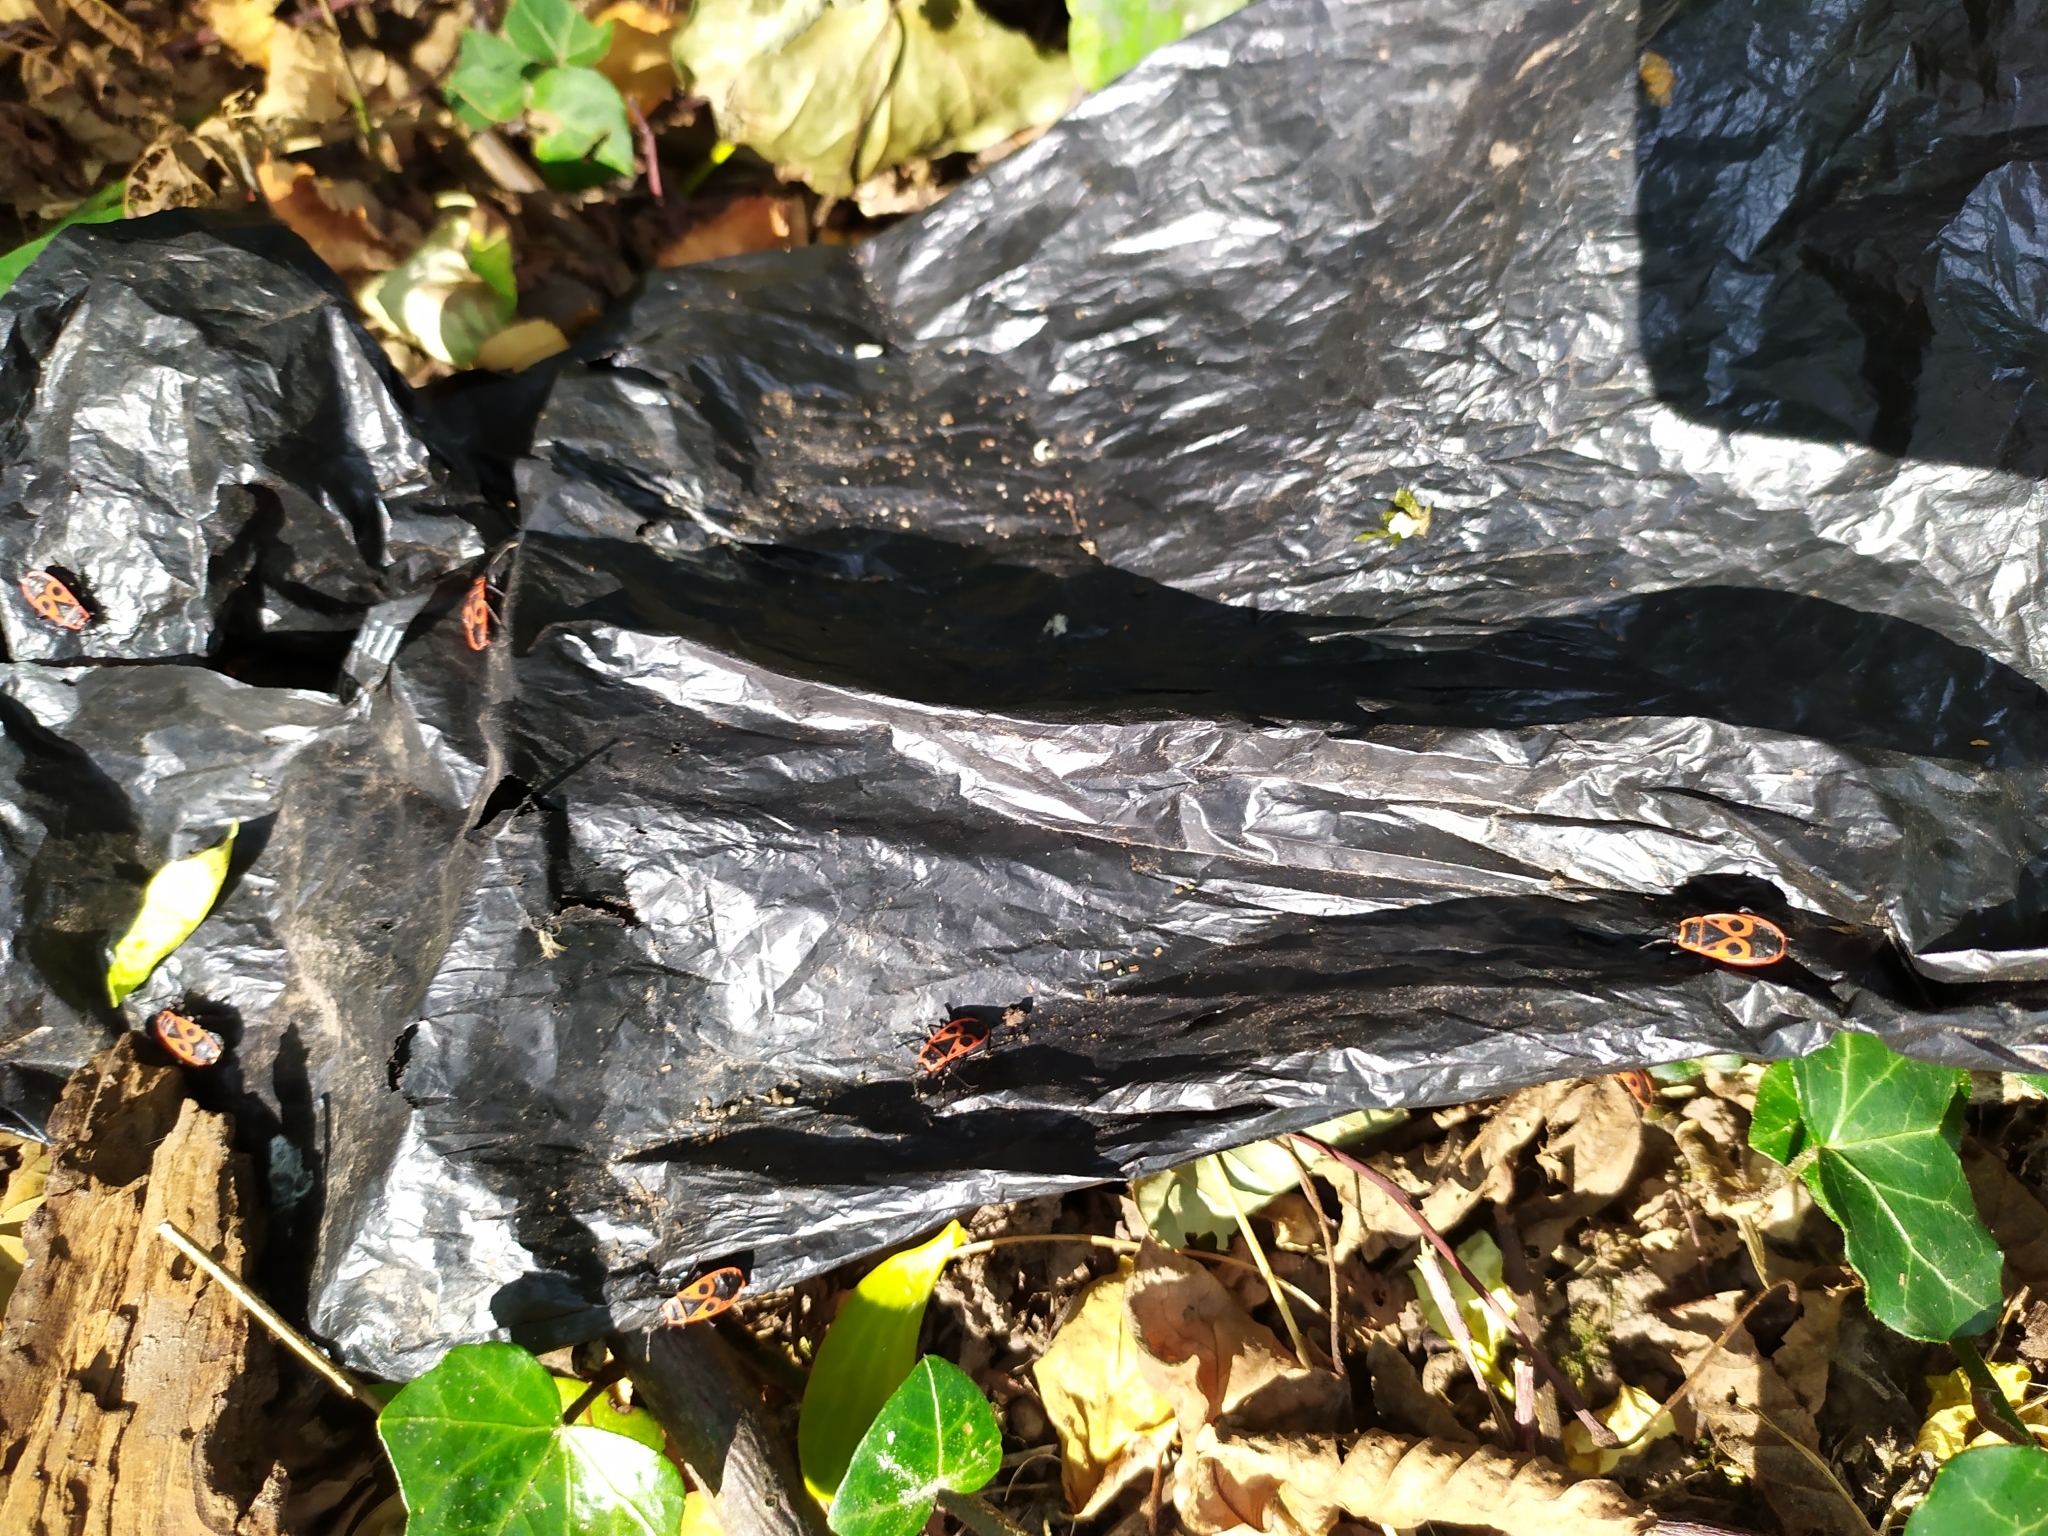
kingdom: Animalia
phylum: Arthropoda
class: Insecta
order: Hemiptera
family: Pyrrhocoridae
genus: Pyrrhocoris
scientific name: Pyrrhocoris apterus
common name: Firebug
